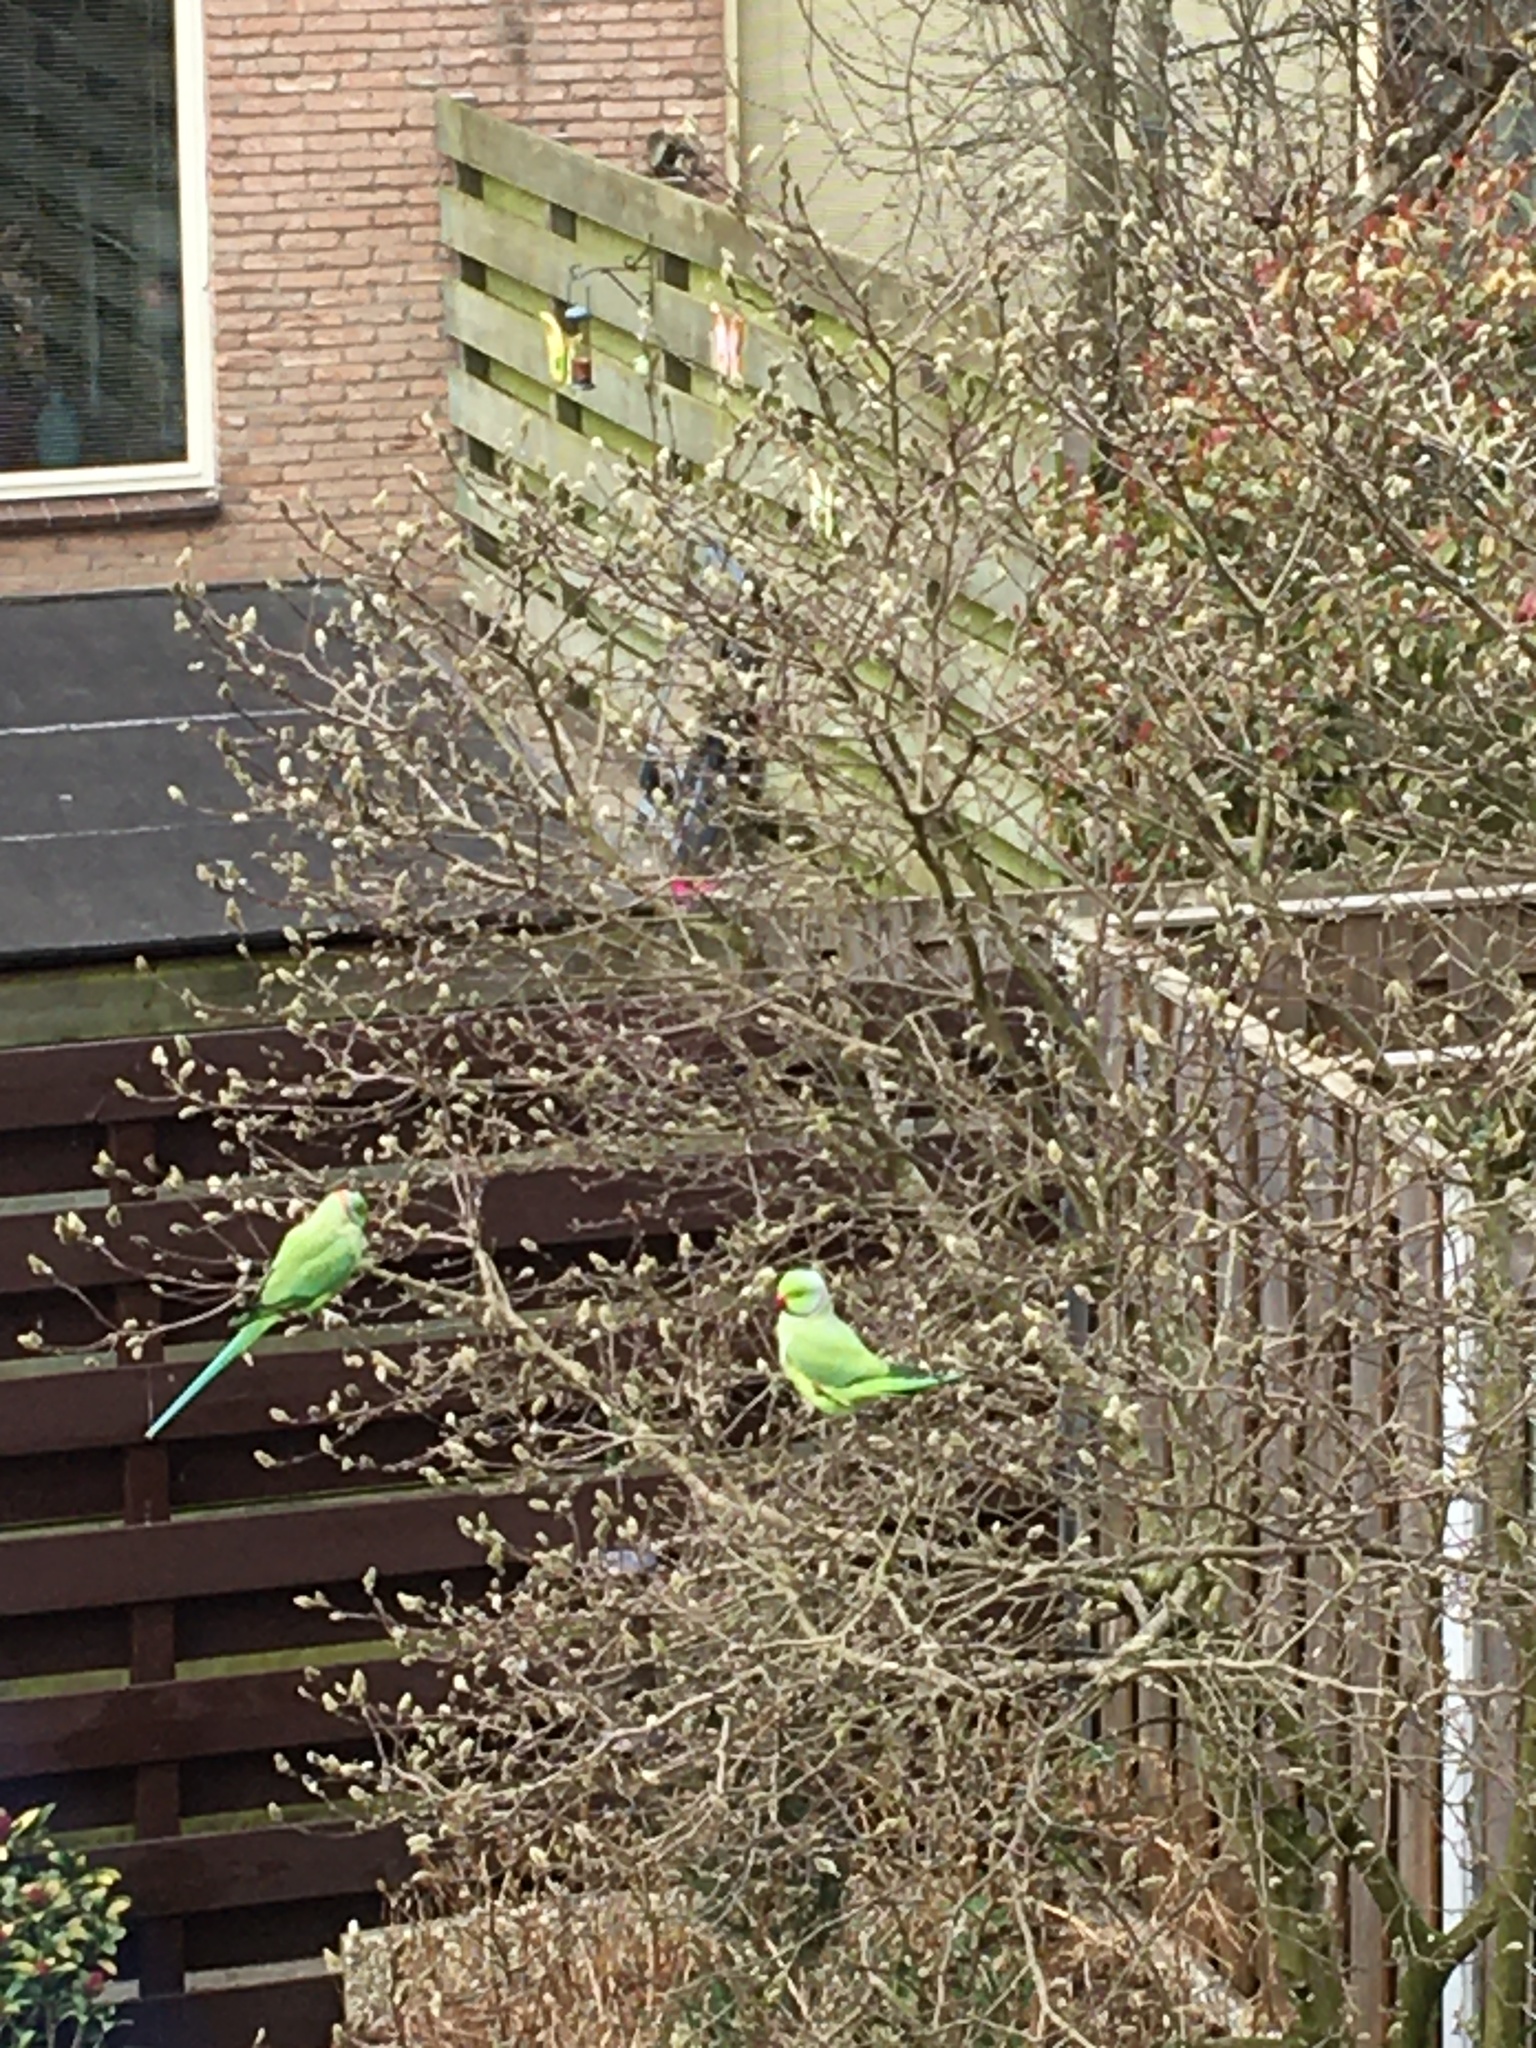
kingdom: Animalia
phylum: Chordata
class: Aves
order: Psittaciformes
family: Psittacidae
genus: Psittacula
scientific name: Psittacula krameri
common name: Rose-ringed parakeet
